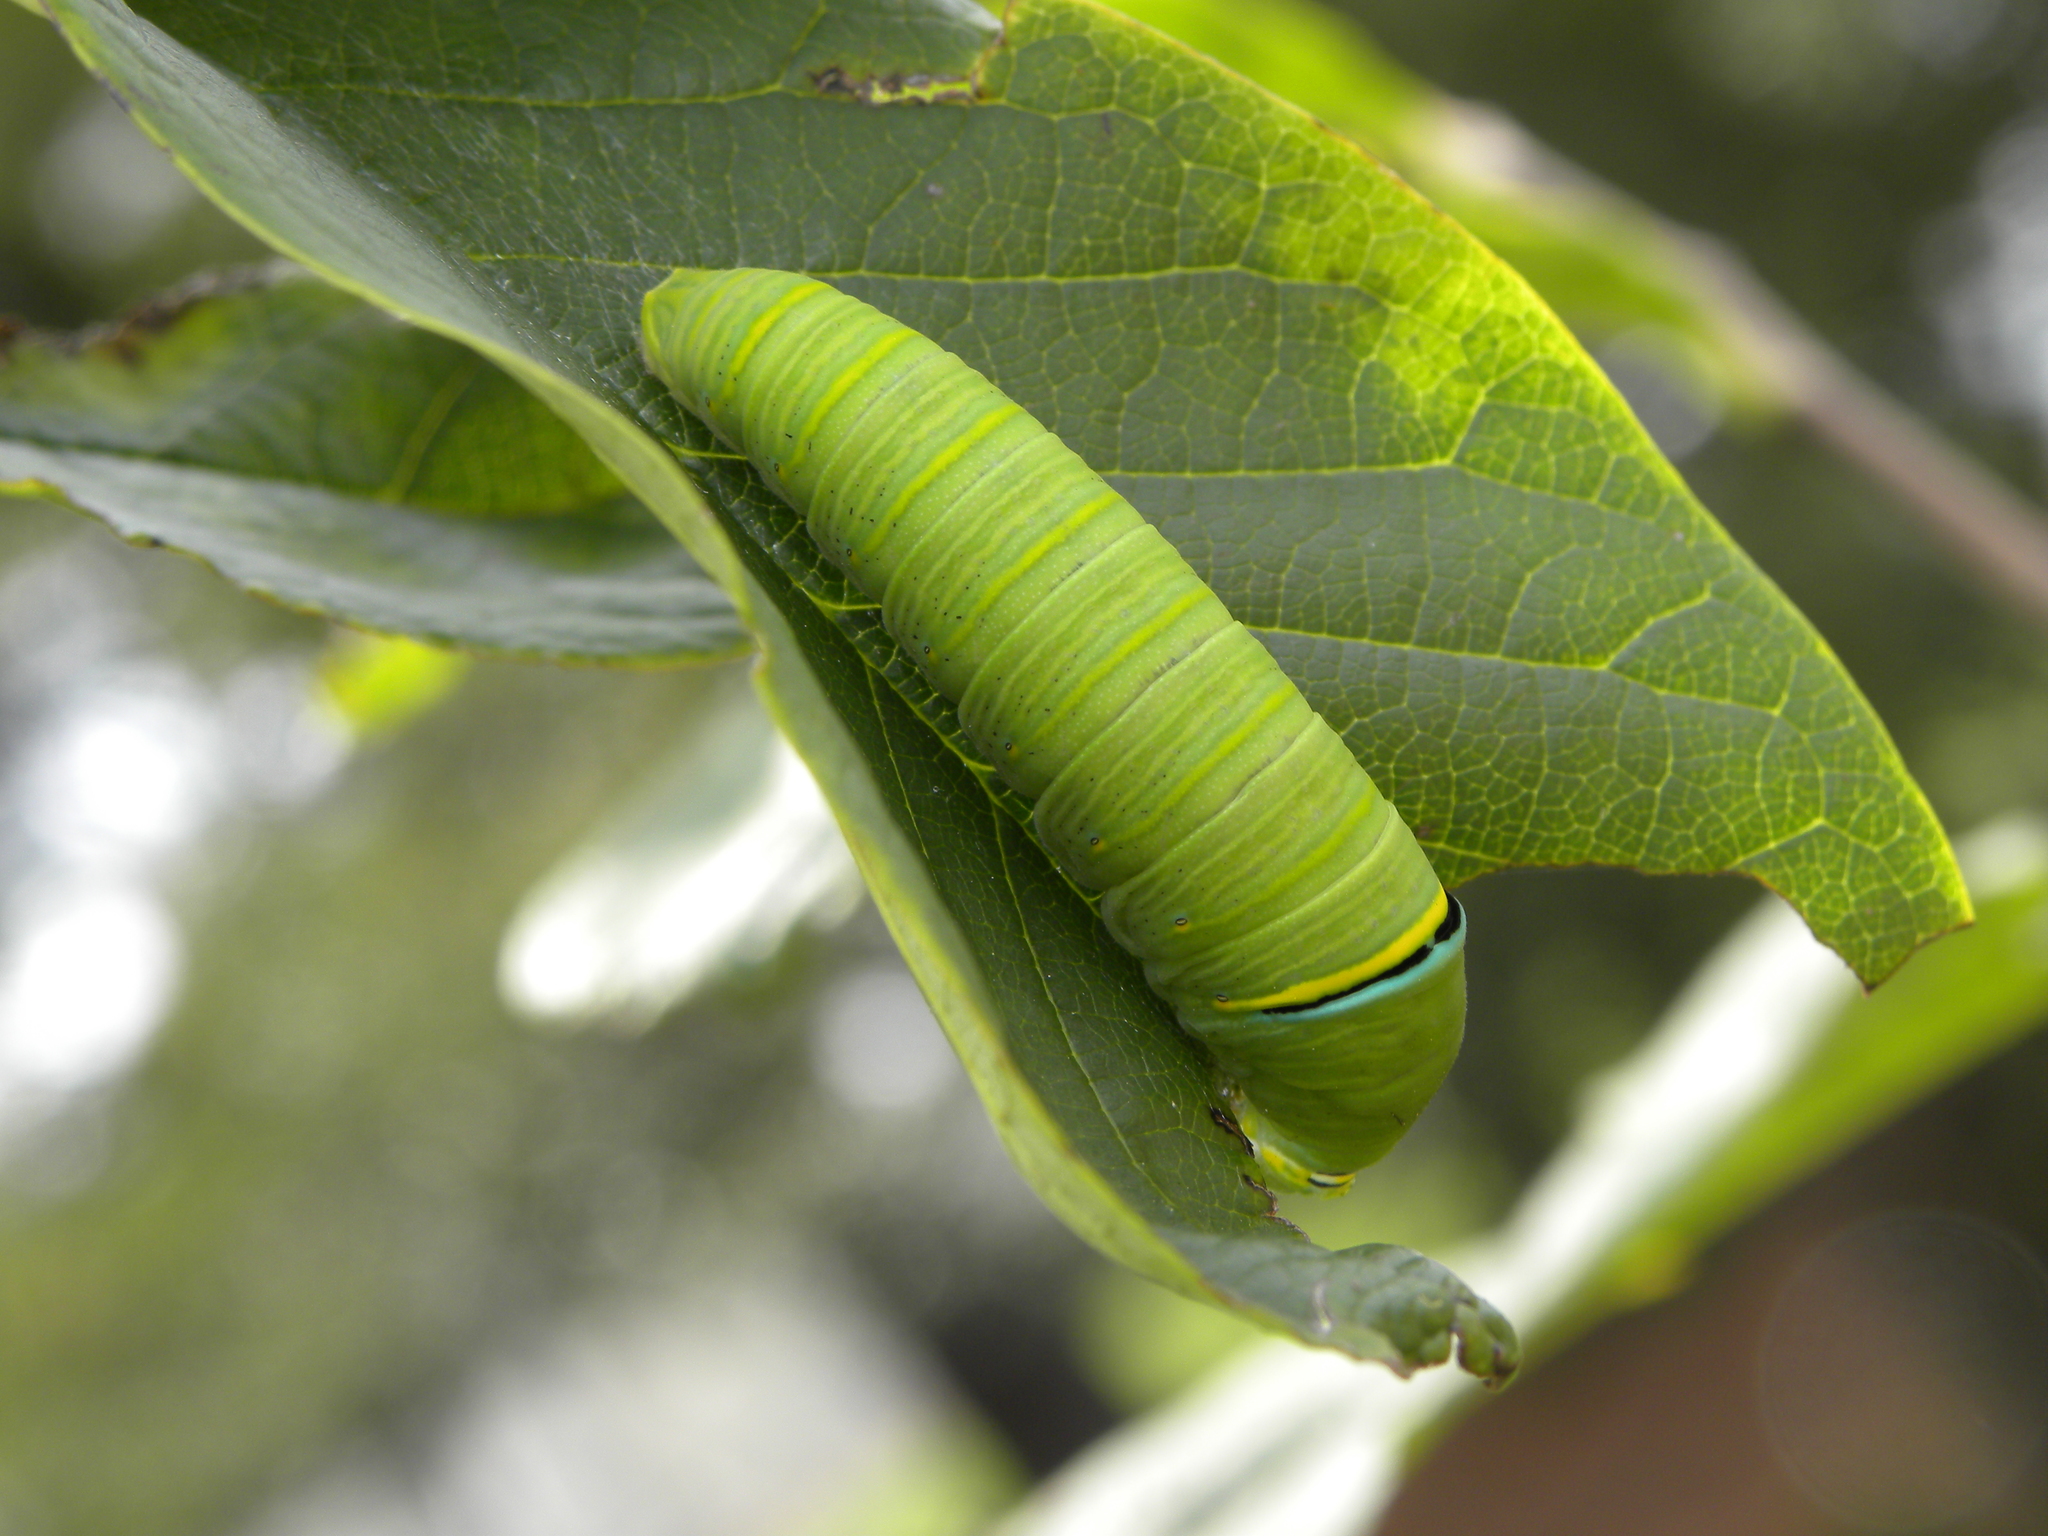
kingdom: Animalia
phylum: Arthropoda
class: Insecta
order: Lepidoptera
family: Papilionidae
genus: Protographium
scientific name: Protographium marcellus
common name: Zebra swallowtail
